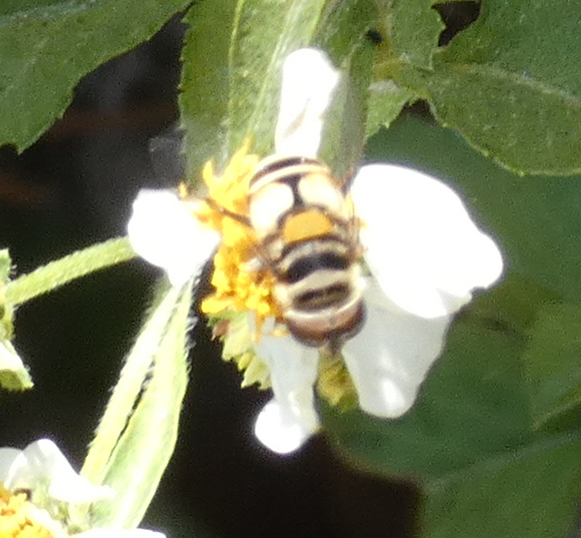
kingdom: Animalia
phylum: Arthropoda
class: Insecta
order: Diptera
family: Syrphidae
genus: Palpada
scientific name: Palpada albifrons
